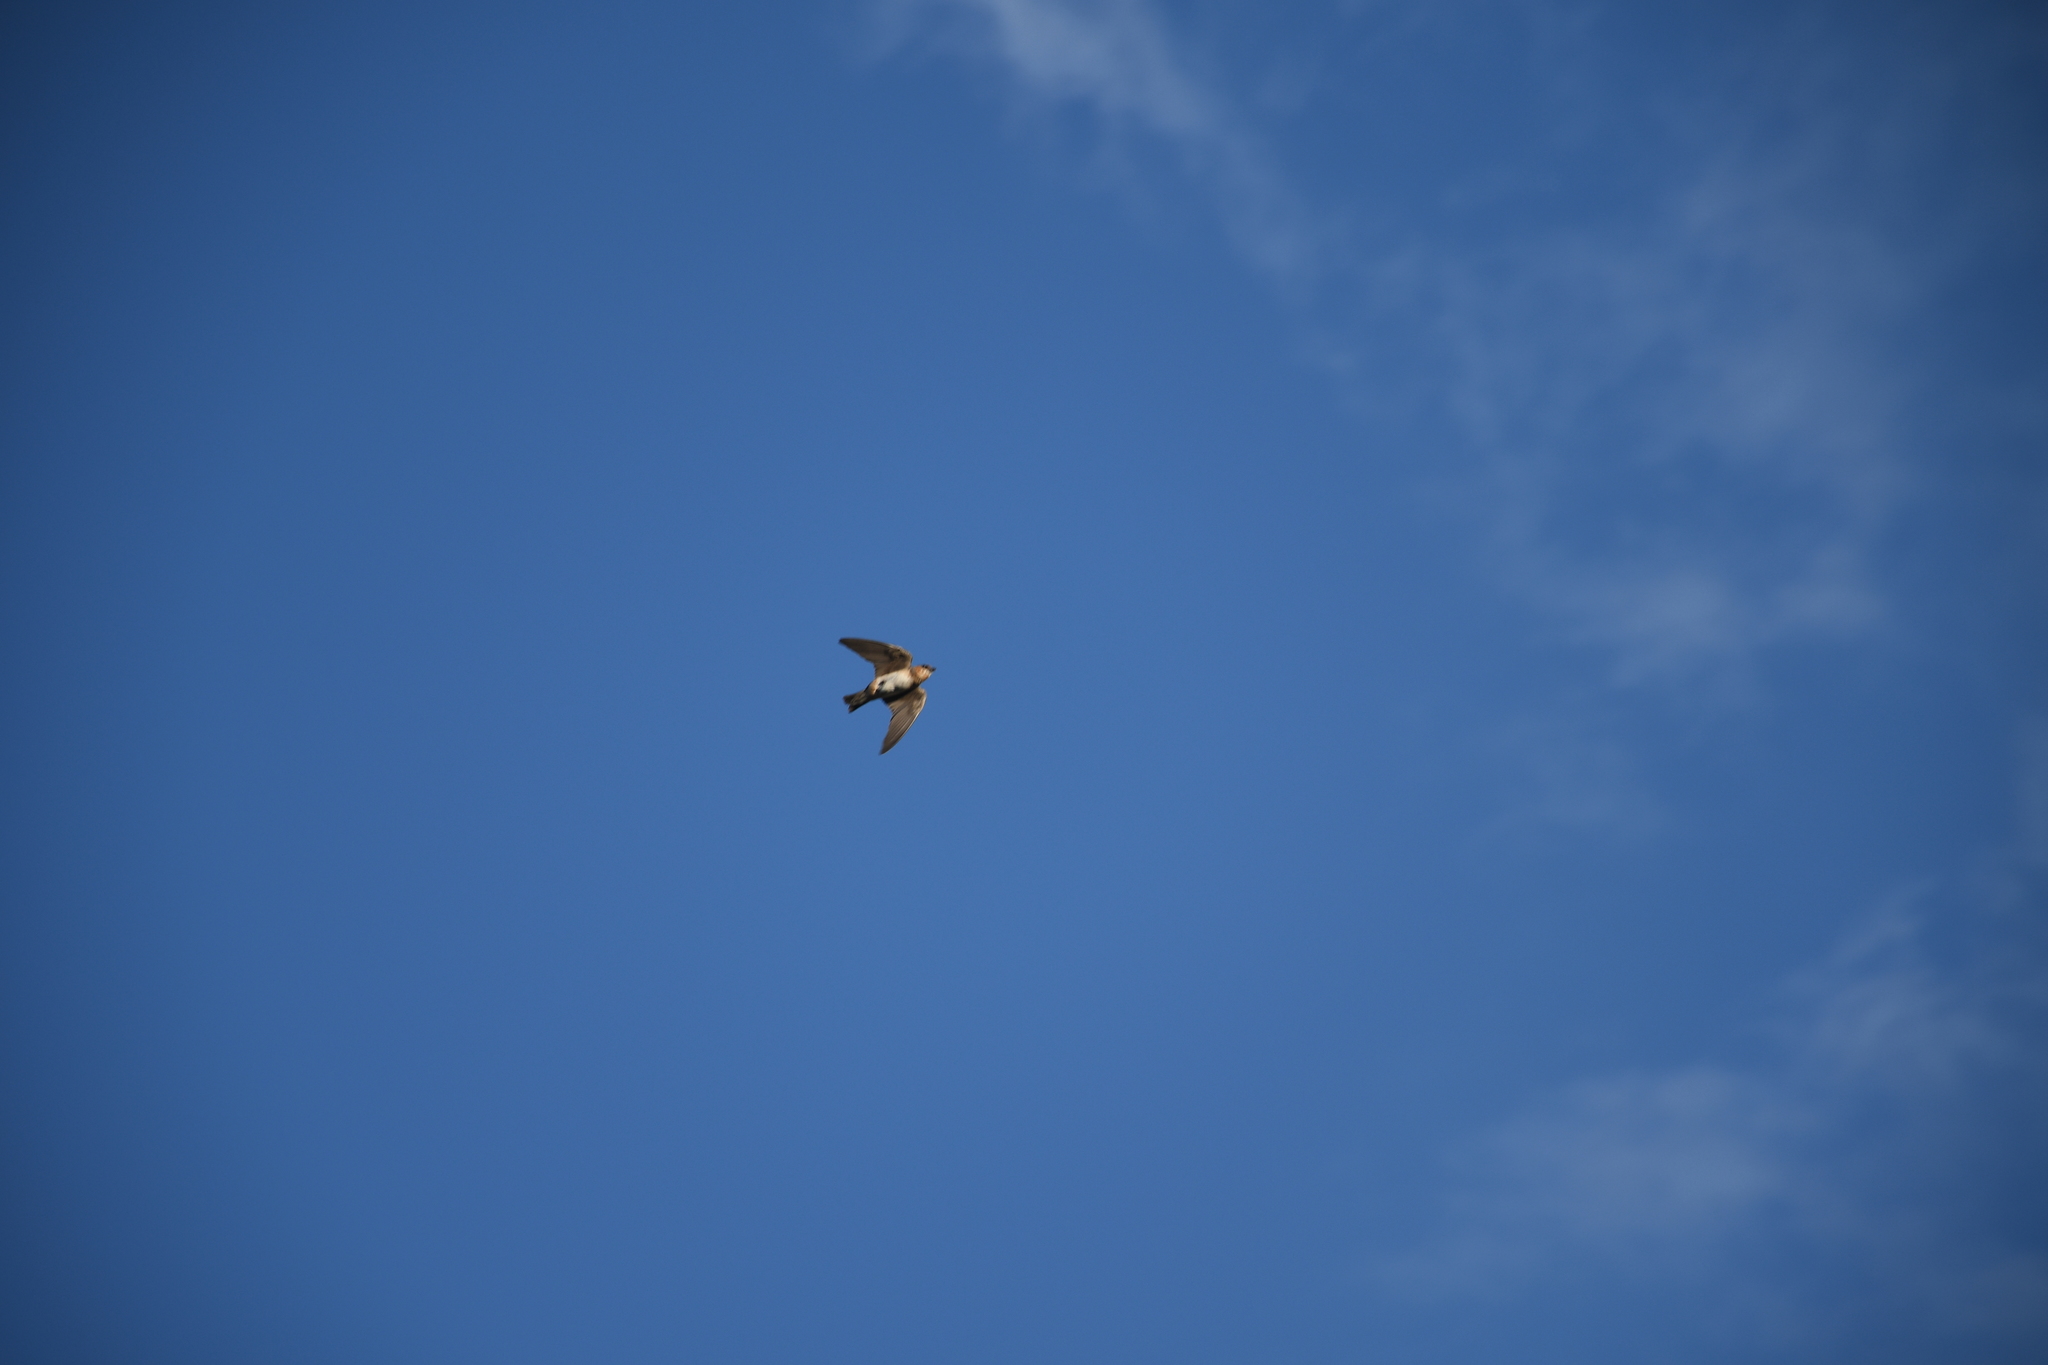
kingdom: Animalia
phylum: Chordata
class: Aves
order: Passeriformes
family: Hirundinidae
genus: Petrochelidon
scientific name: Petrochelidon pyrrhonota
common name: American cliff swallow
